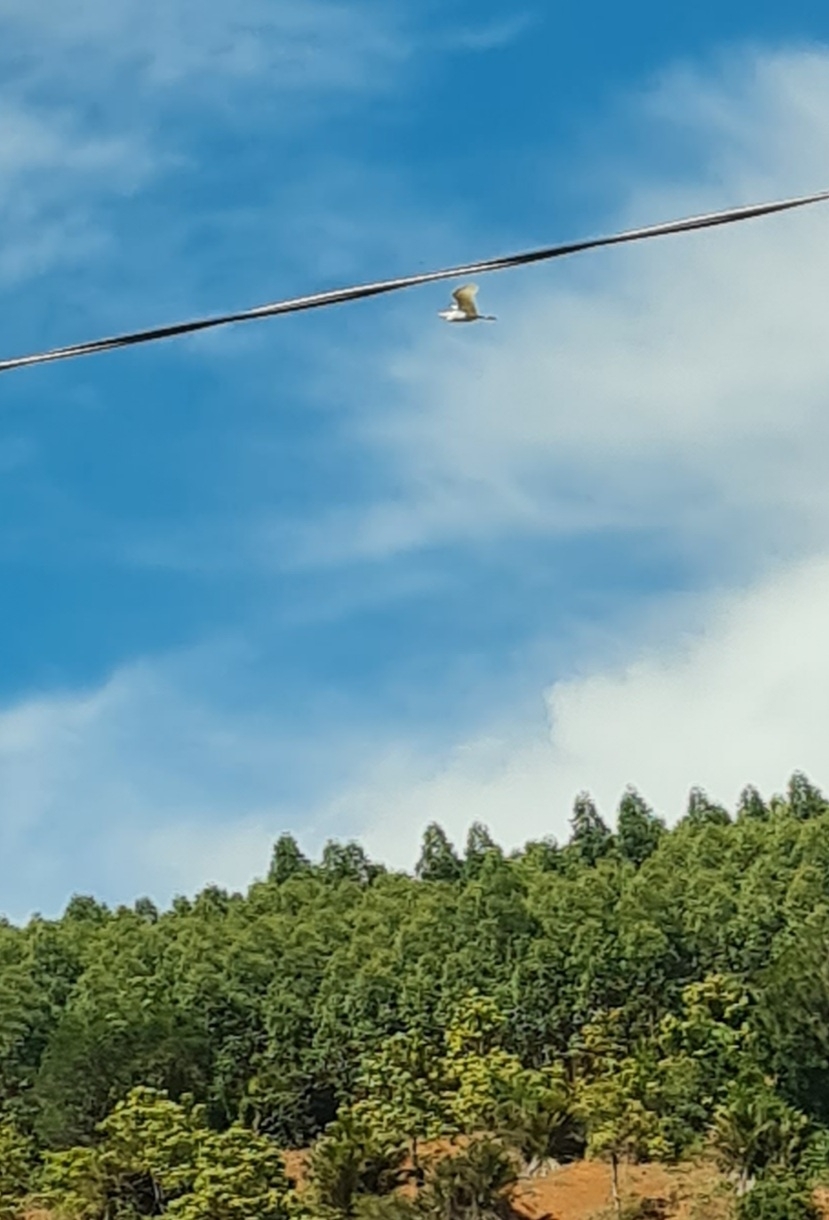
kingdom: Animalia
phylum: Chordata
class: Aves
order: Pelecaniformes
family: Ardeidae
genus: Ardea
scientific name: Ardea alba
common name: Great egret
